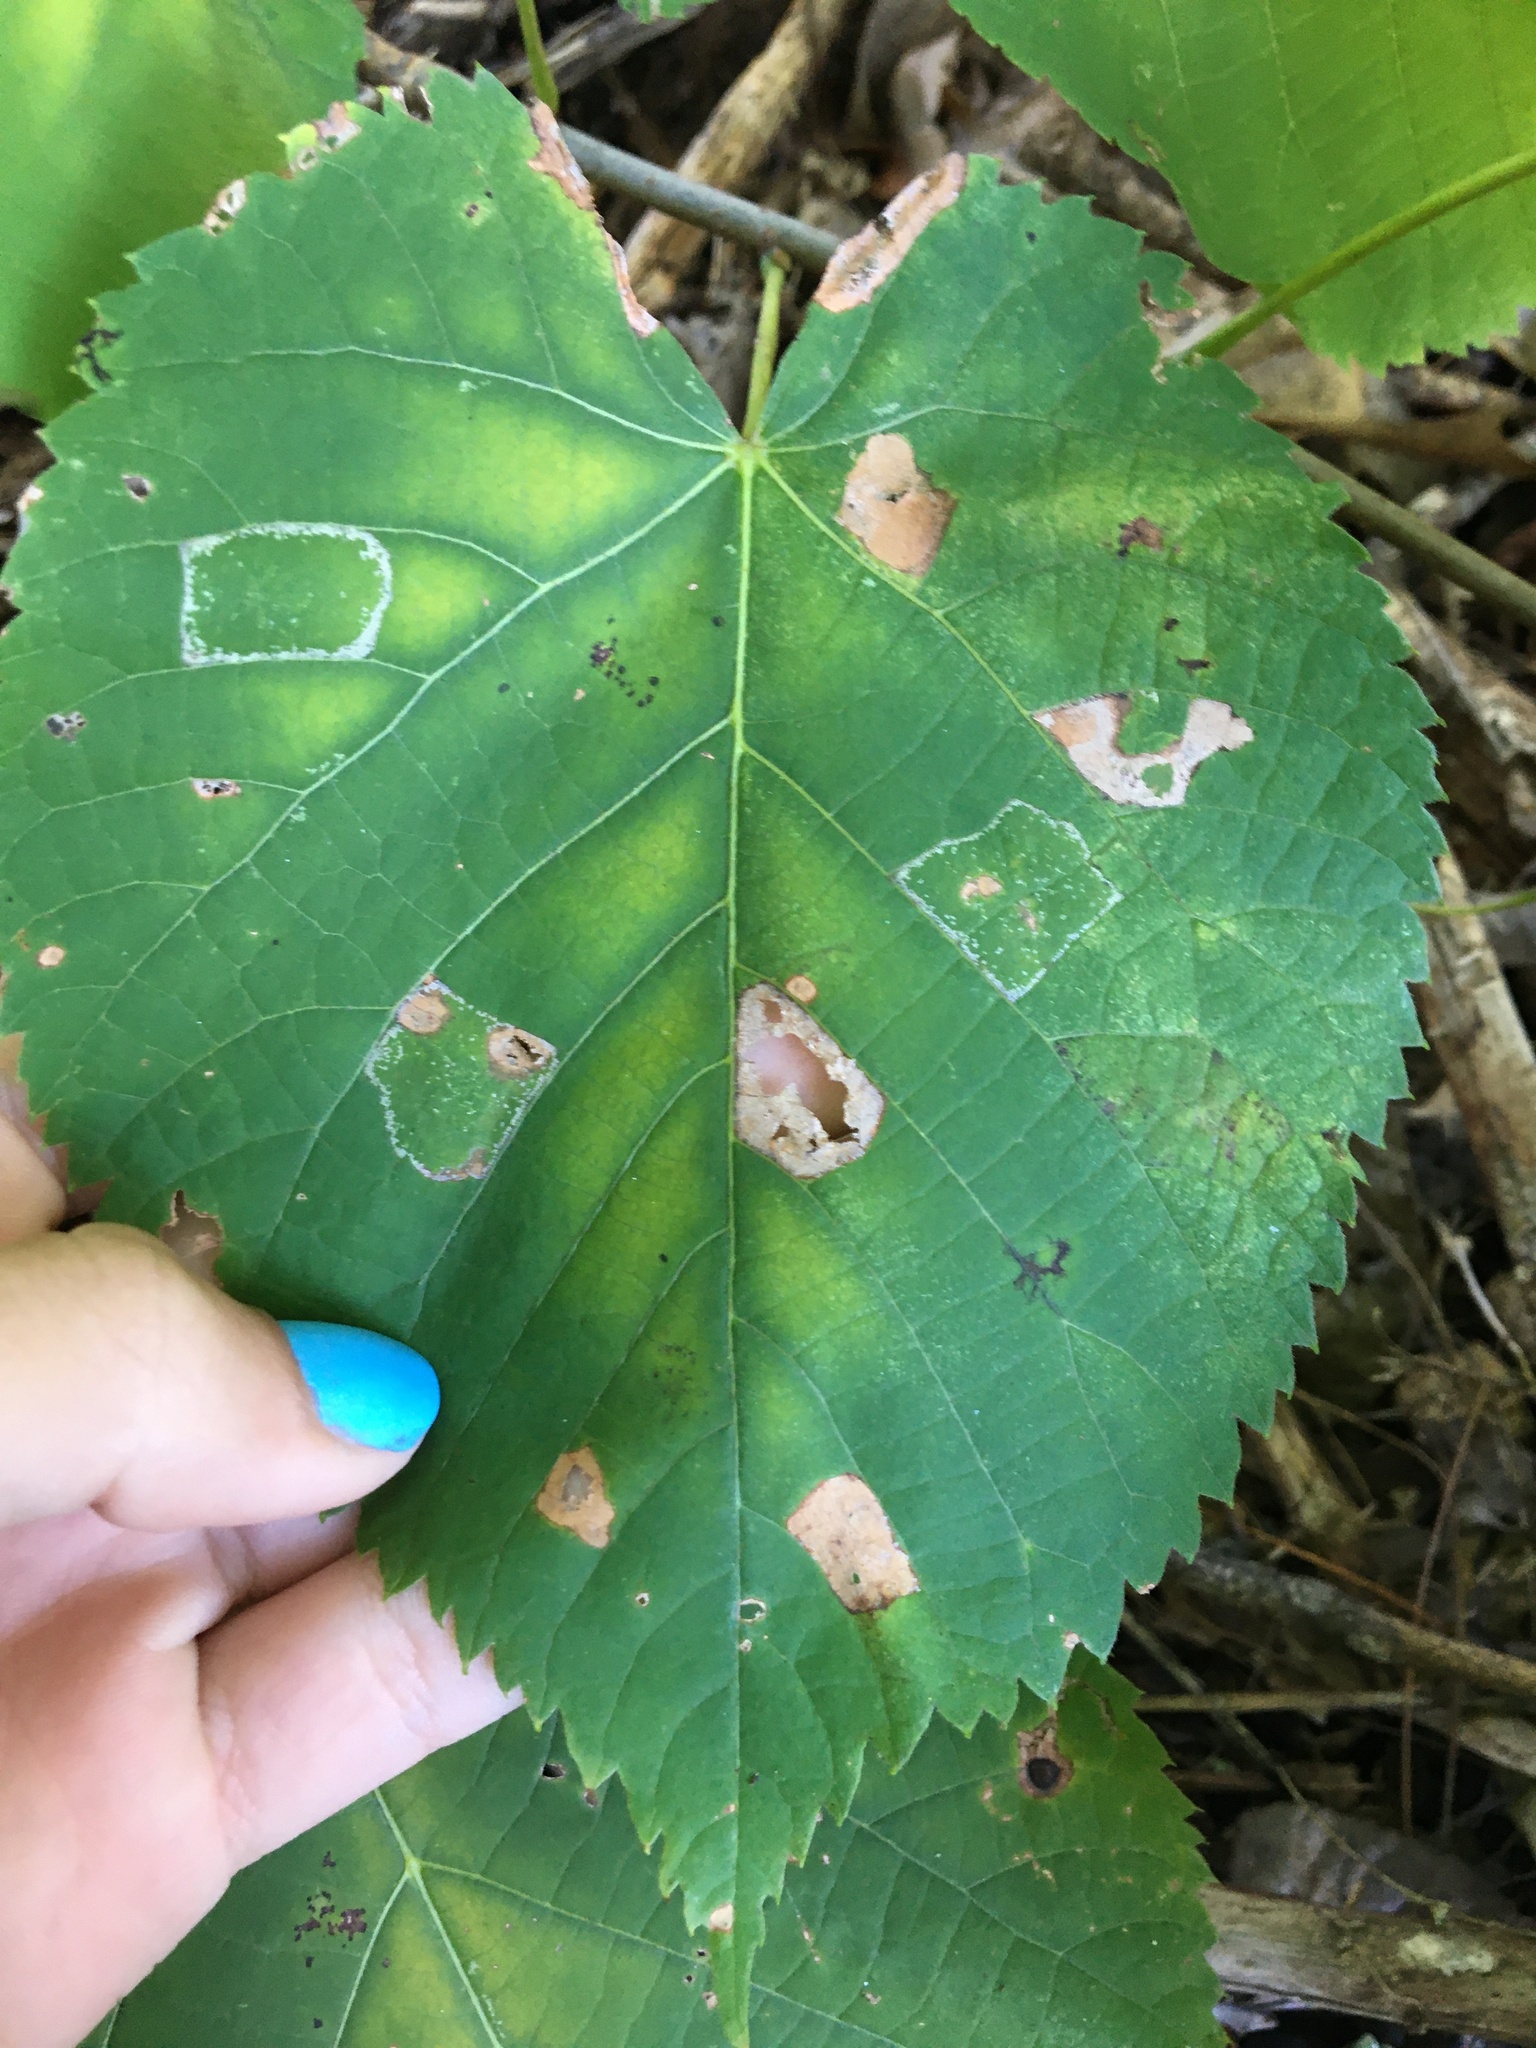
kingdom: Animalia
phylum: Arthropoda
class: Insecta
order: Lepidoptera
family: Gracillariidae
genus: Phyllonorycter
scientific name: Phyllonorycter lucetiella
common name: Basswood miner moth
